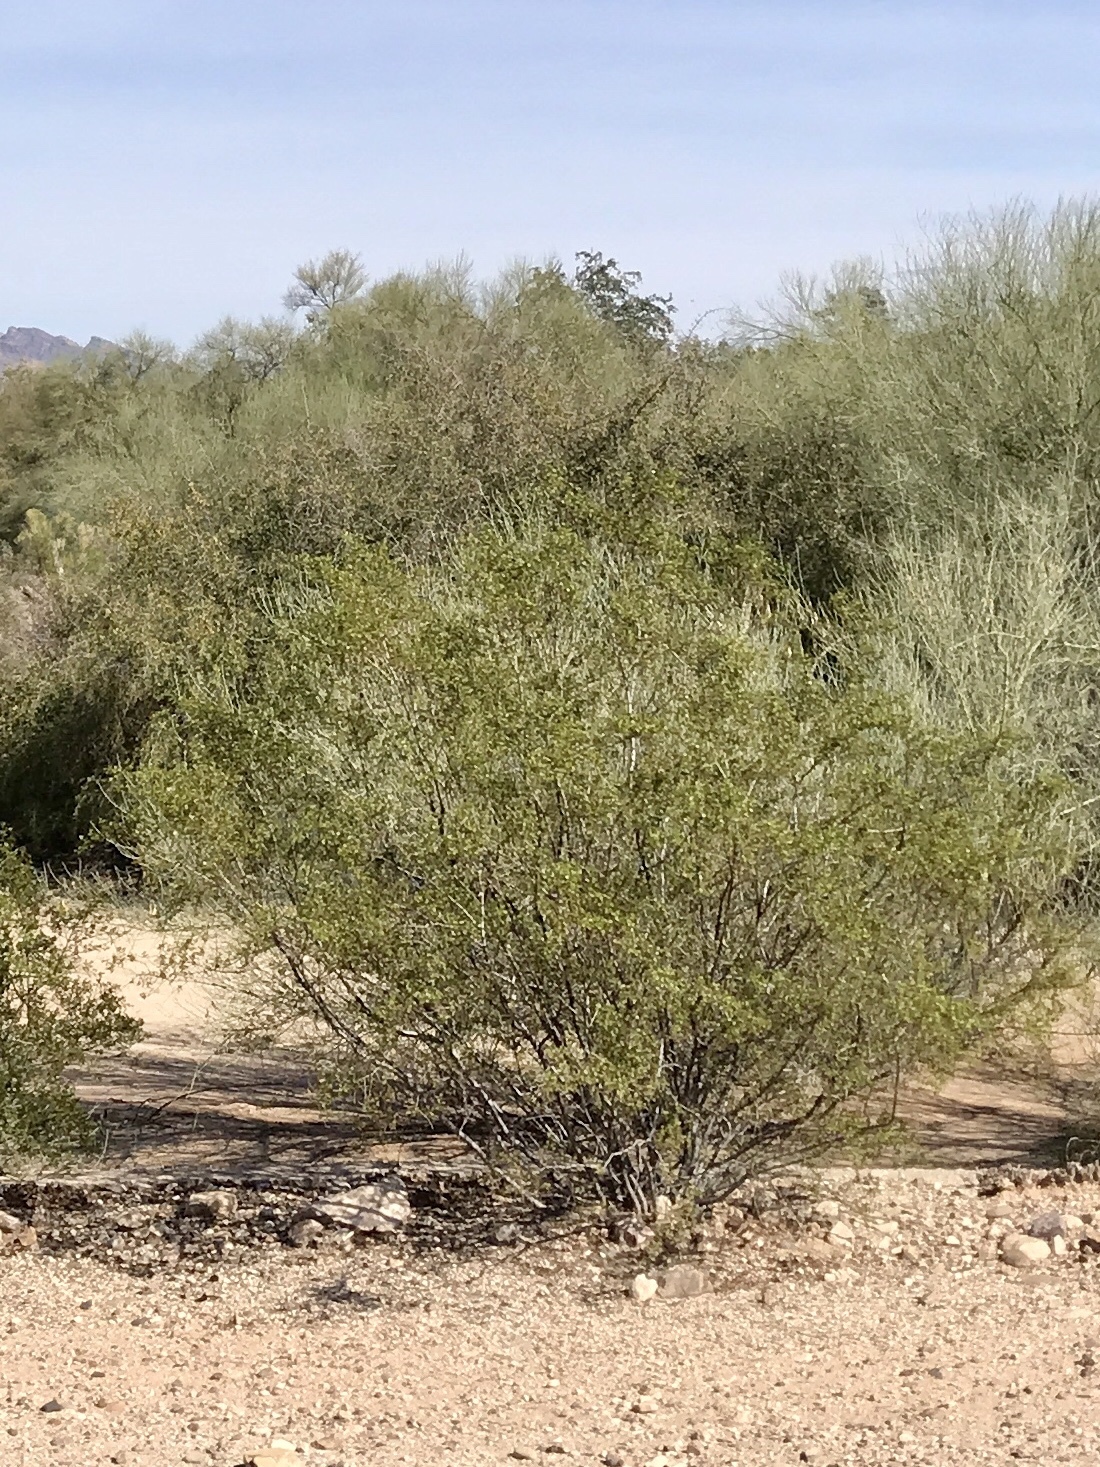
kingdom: Plantae
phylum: Tracheophyta
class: Magnoliopsida
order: Zygophyllales
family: Zygophyllaceae
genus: Larrea
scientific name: Larrea tridentata
